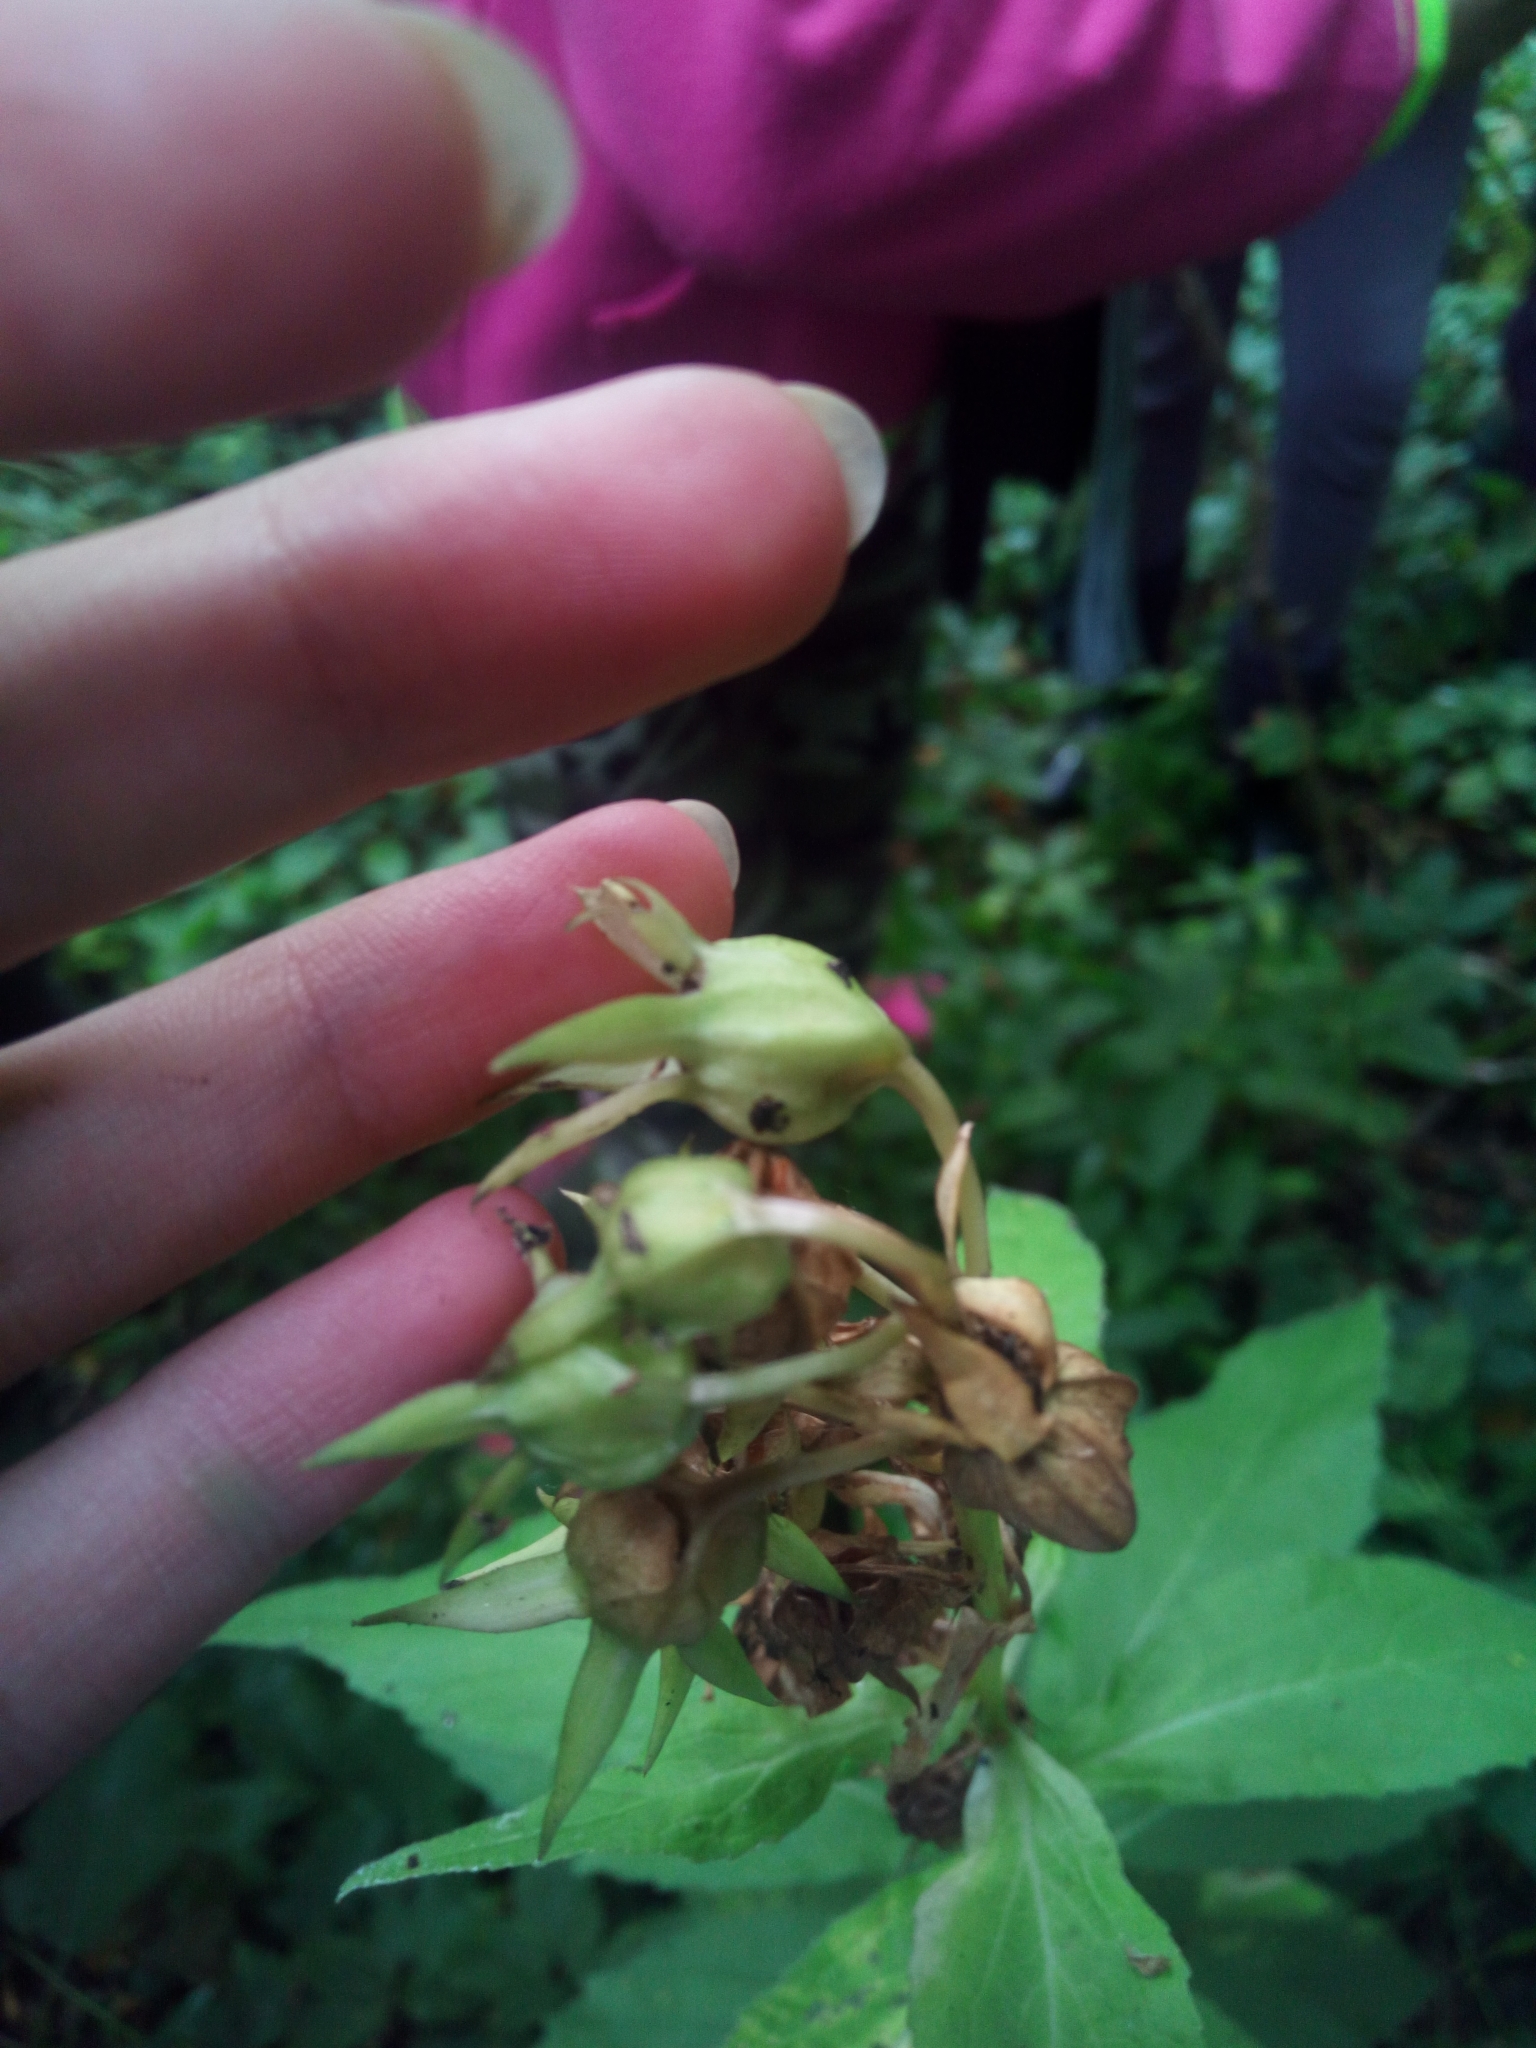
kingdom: Plantae
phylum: Tracheophyta
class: Magnoliopsida
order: Asterales
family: Campanulaceae
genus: Campanula
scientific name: Campanula latifolia
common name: Giant bellflower
